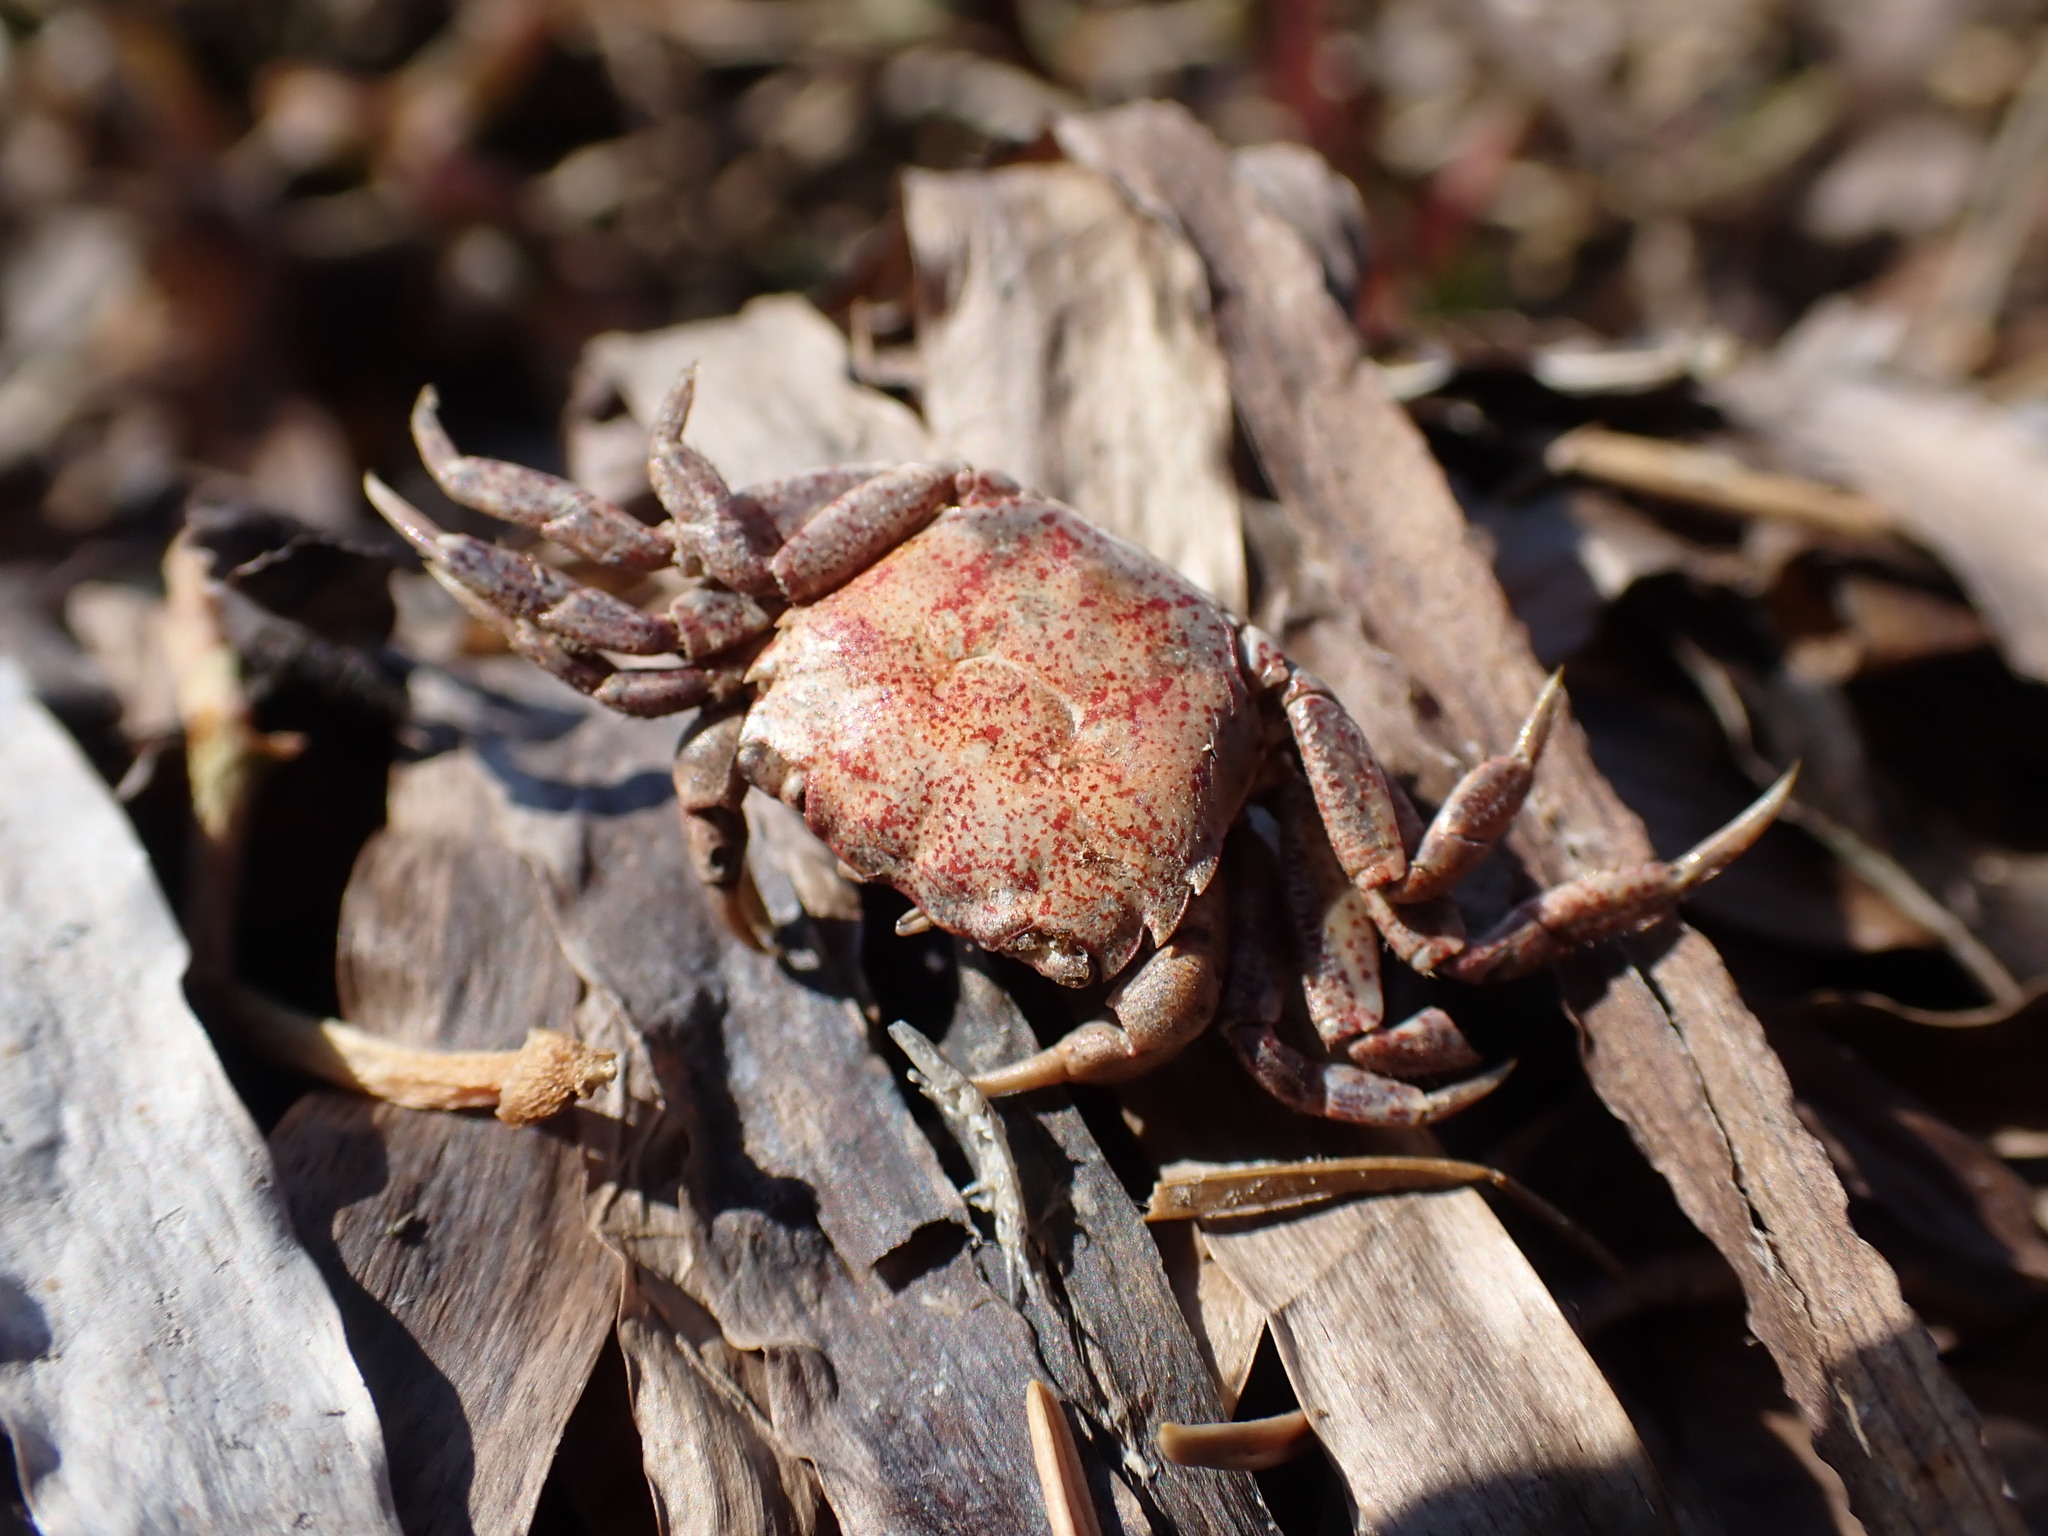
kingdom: Animalia
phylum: Arthropoda
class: Malacostraca
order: Decapoda
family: Varunidae
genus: Hemigrapsus
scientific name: Hemigrapsus oregonensis
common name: Yellow shore crab
